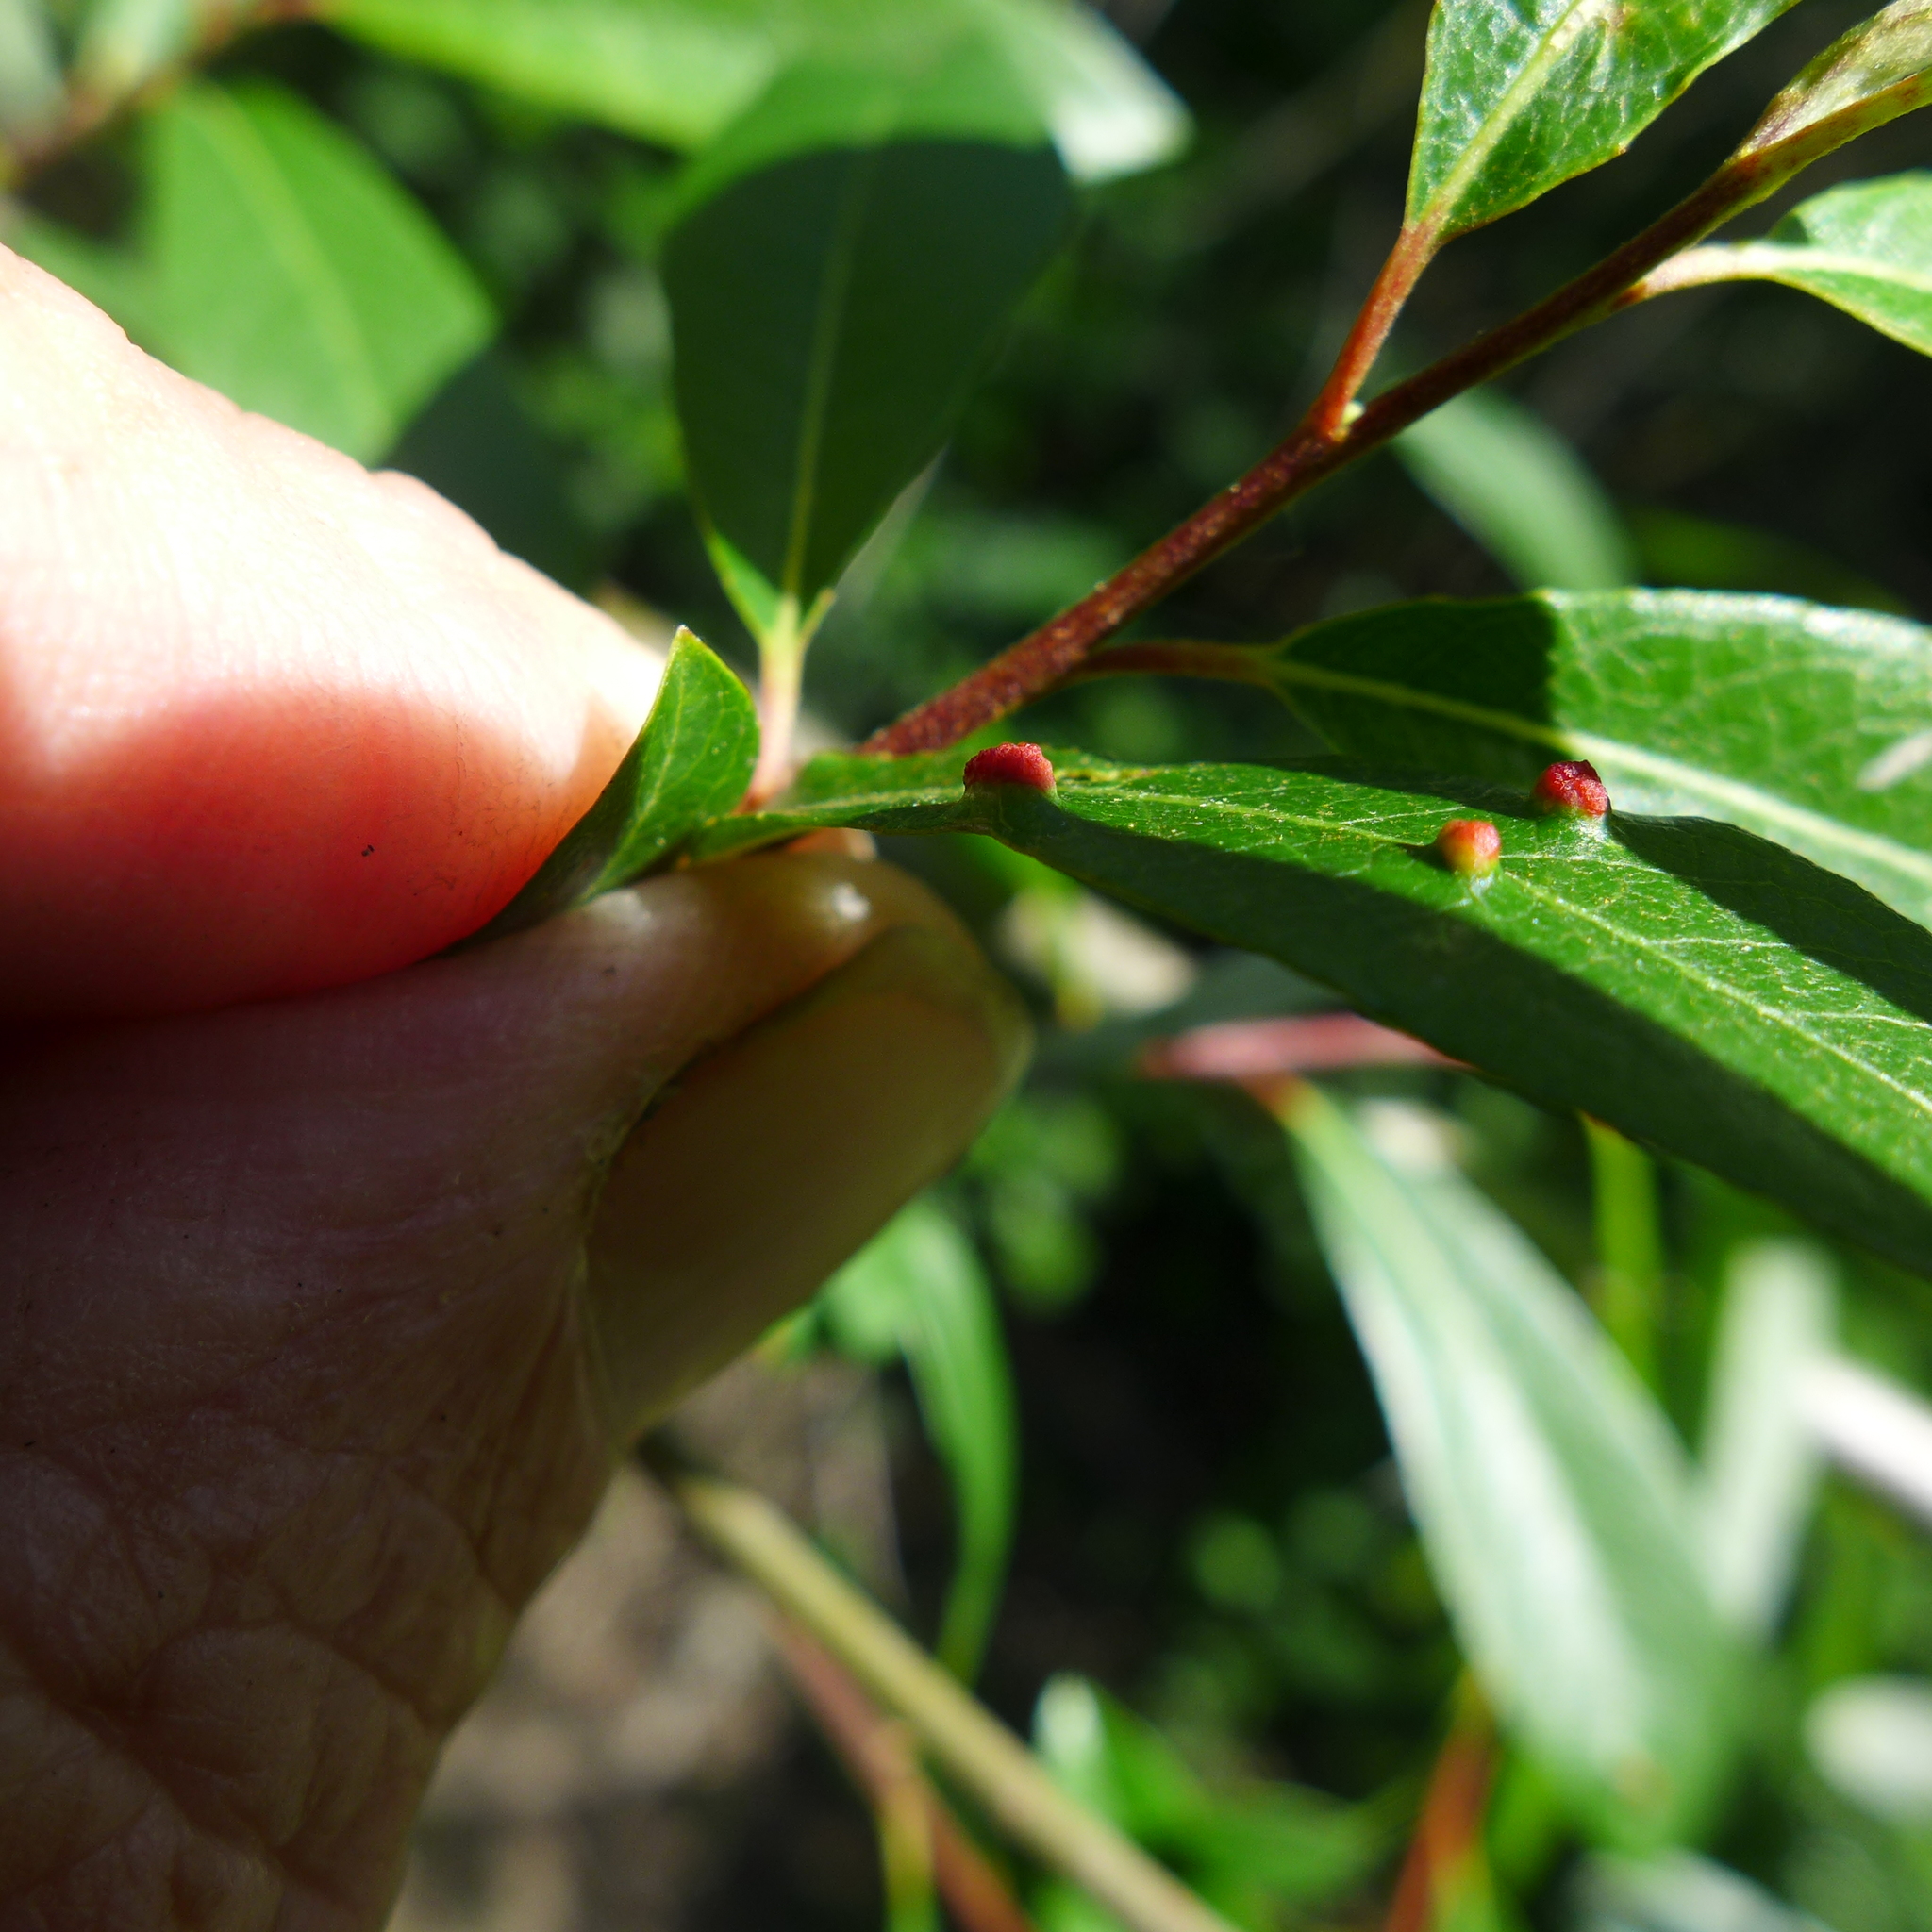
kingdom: Animalia
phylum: Arthropoda
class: Arachnida
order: Trombidiformes
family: Eriophyidae
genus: Aculus
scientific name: Aculus tetanothrix
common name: Willow bead gall mite
